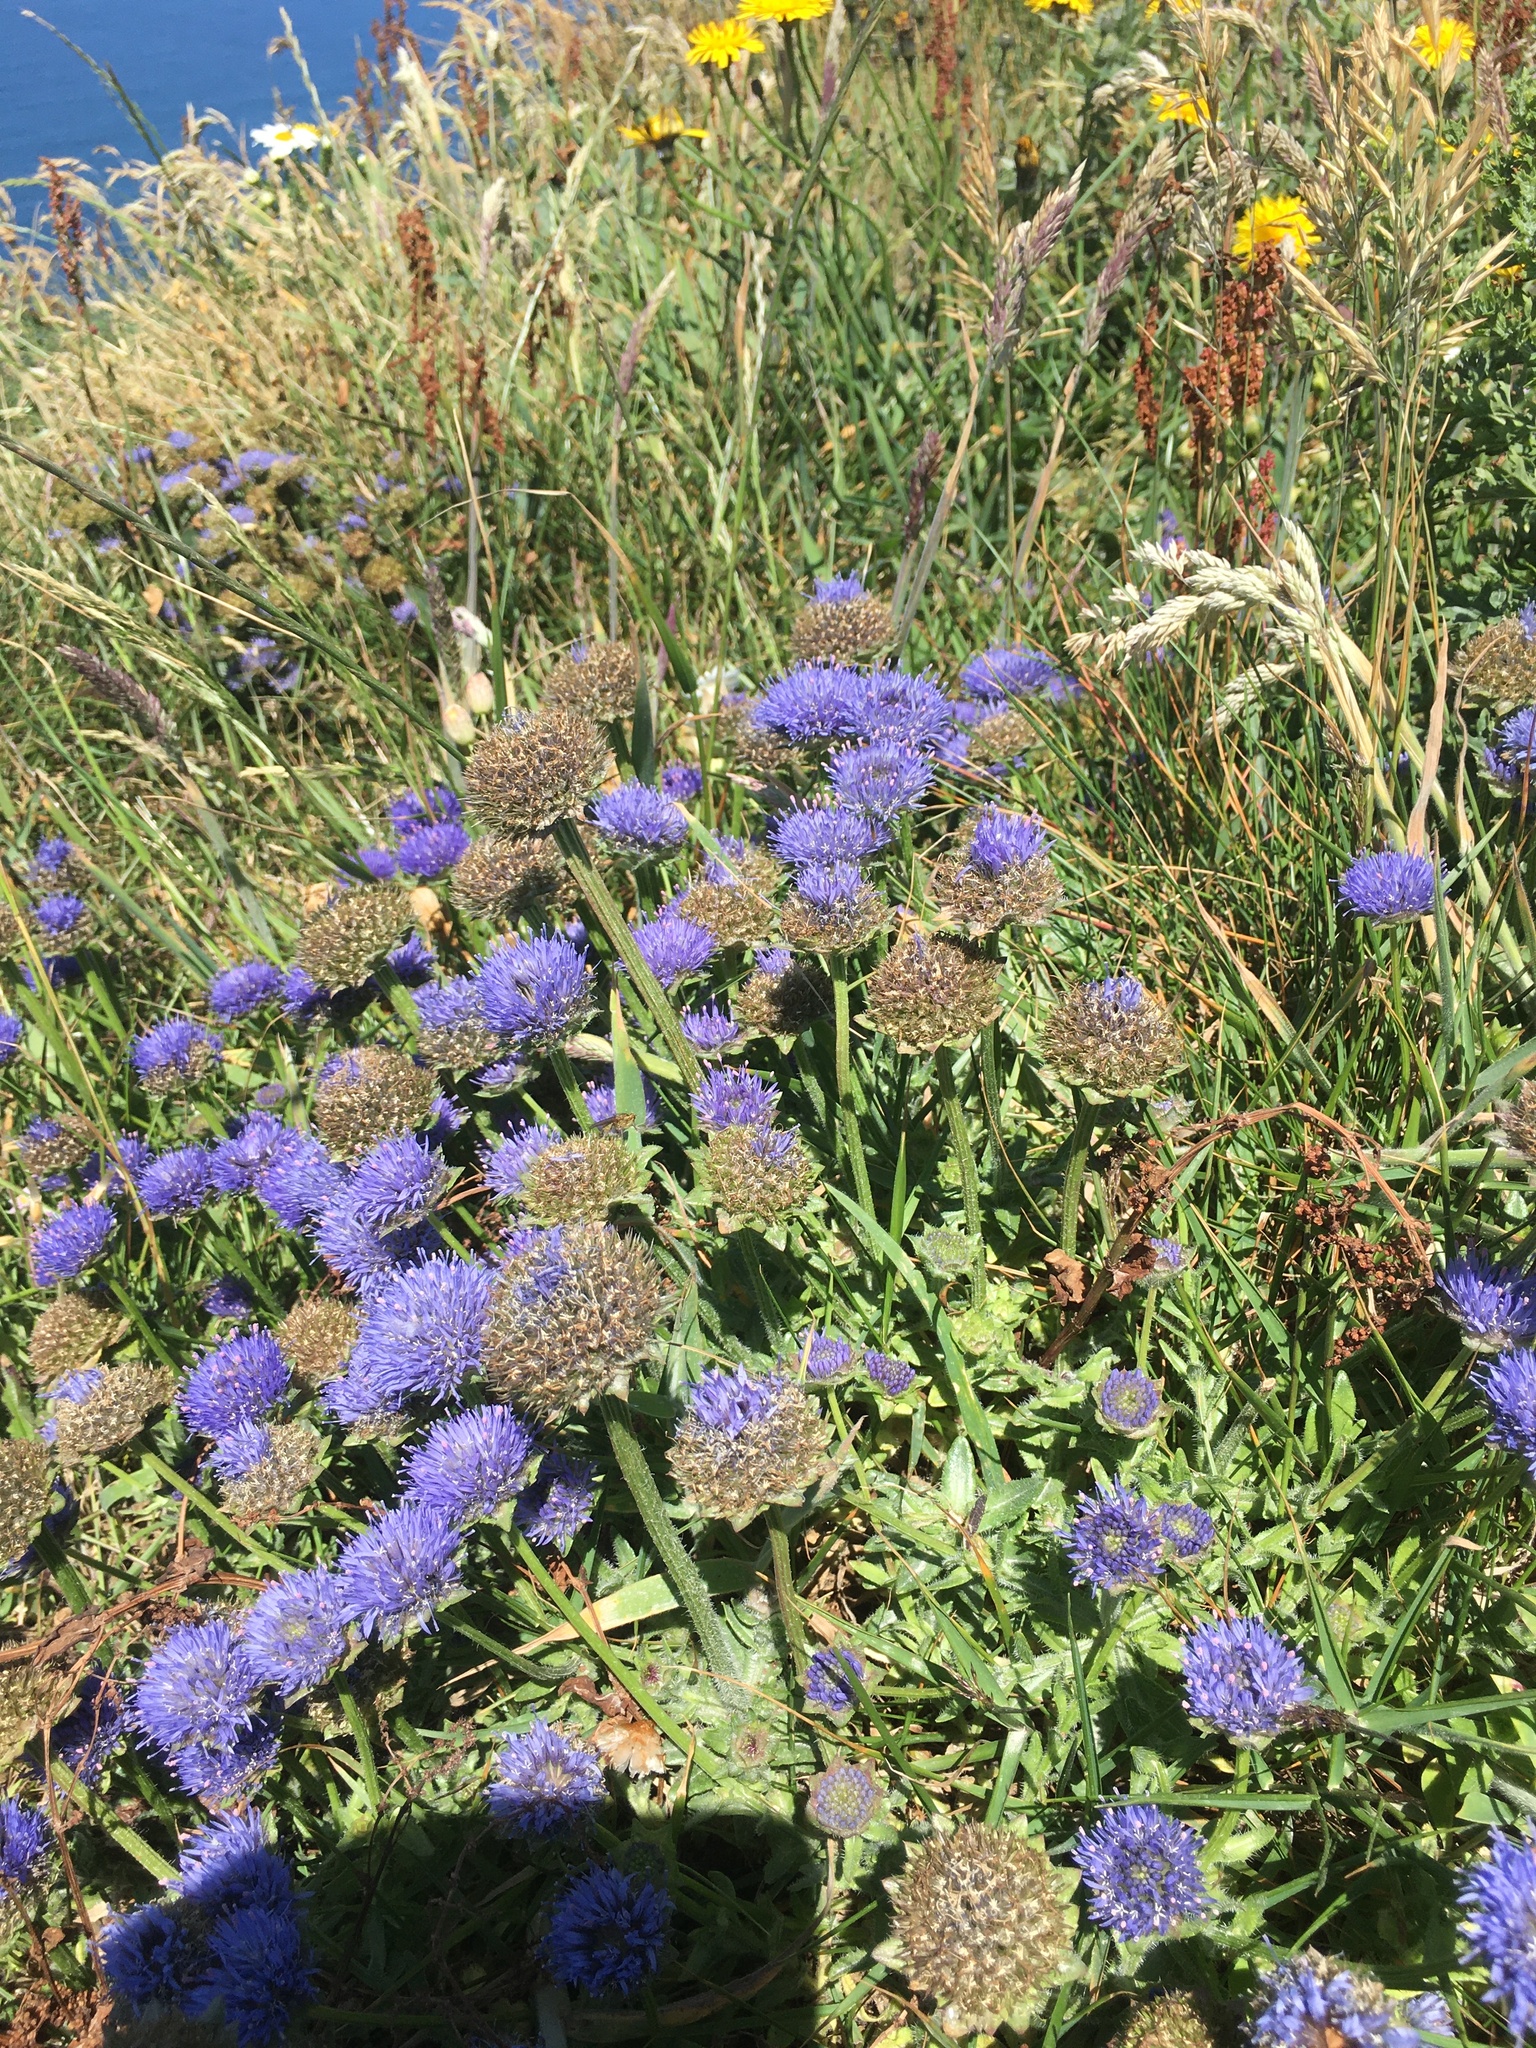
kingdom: Plantae
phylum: Tracheophyta
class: Magnoliopsida
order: Asterales
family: Campanulaceae
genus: Jasione
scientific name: Jasione montana
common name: Sheep's-bit
